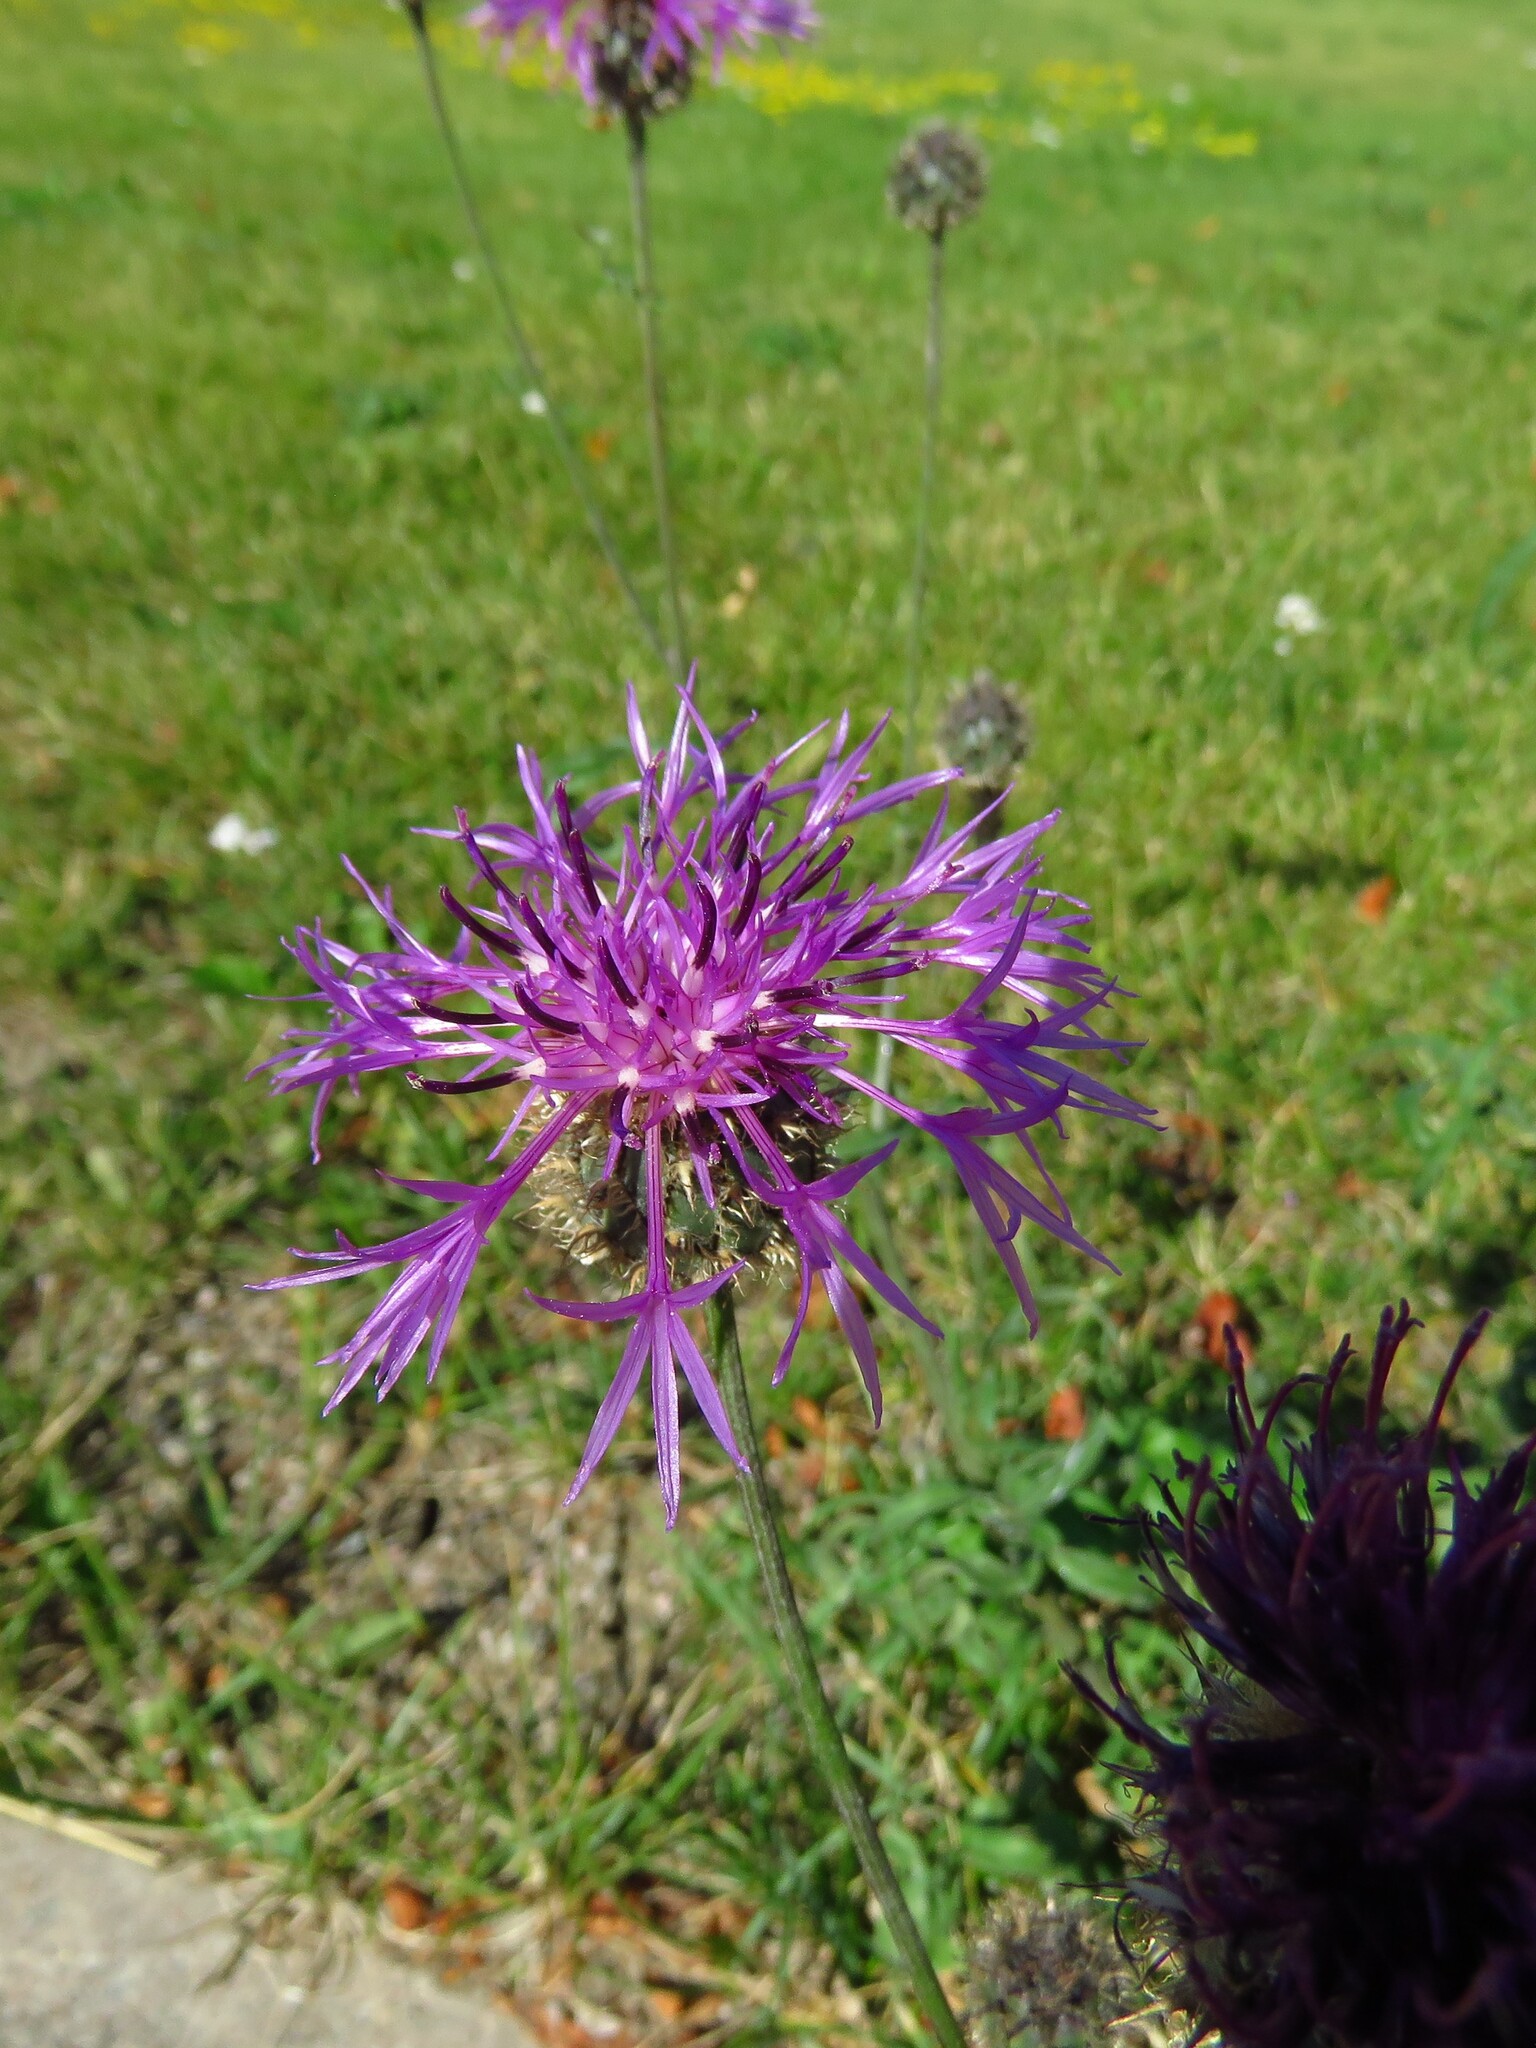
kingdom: Plantae
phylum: Tracheophyta
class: Magnoliopsida
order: Asterales
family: Asteraceae
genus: Centaurea
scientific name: Centaurea scabiosa
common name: Greater knapweed
